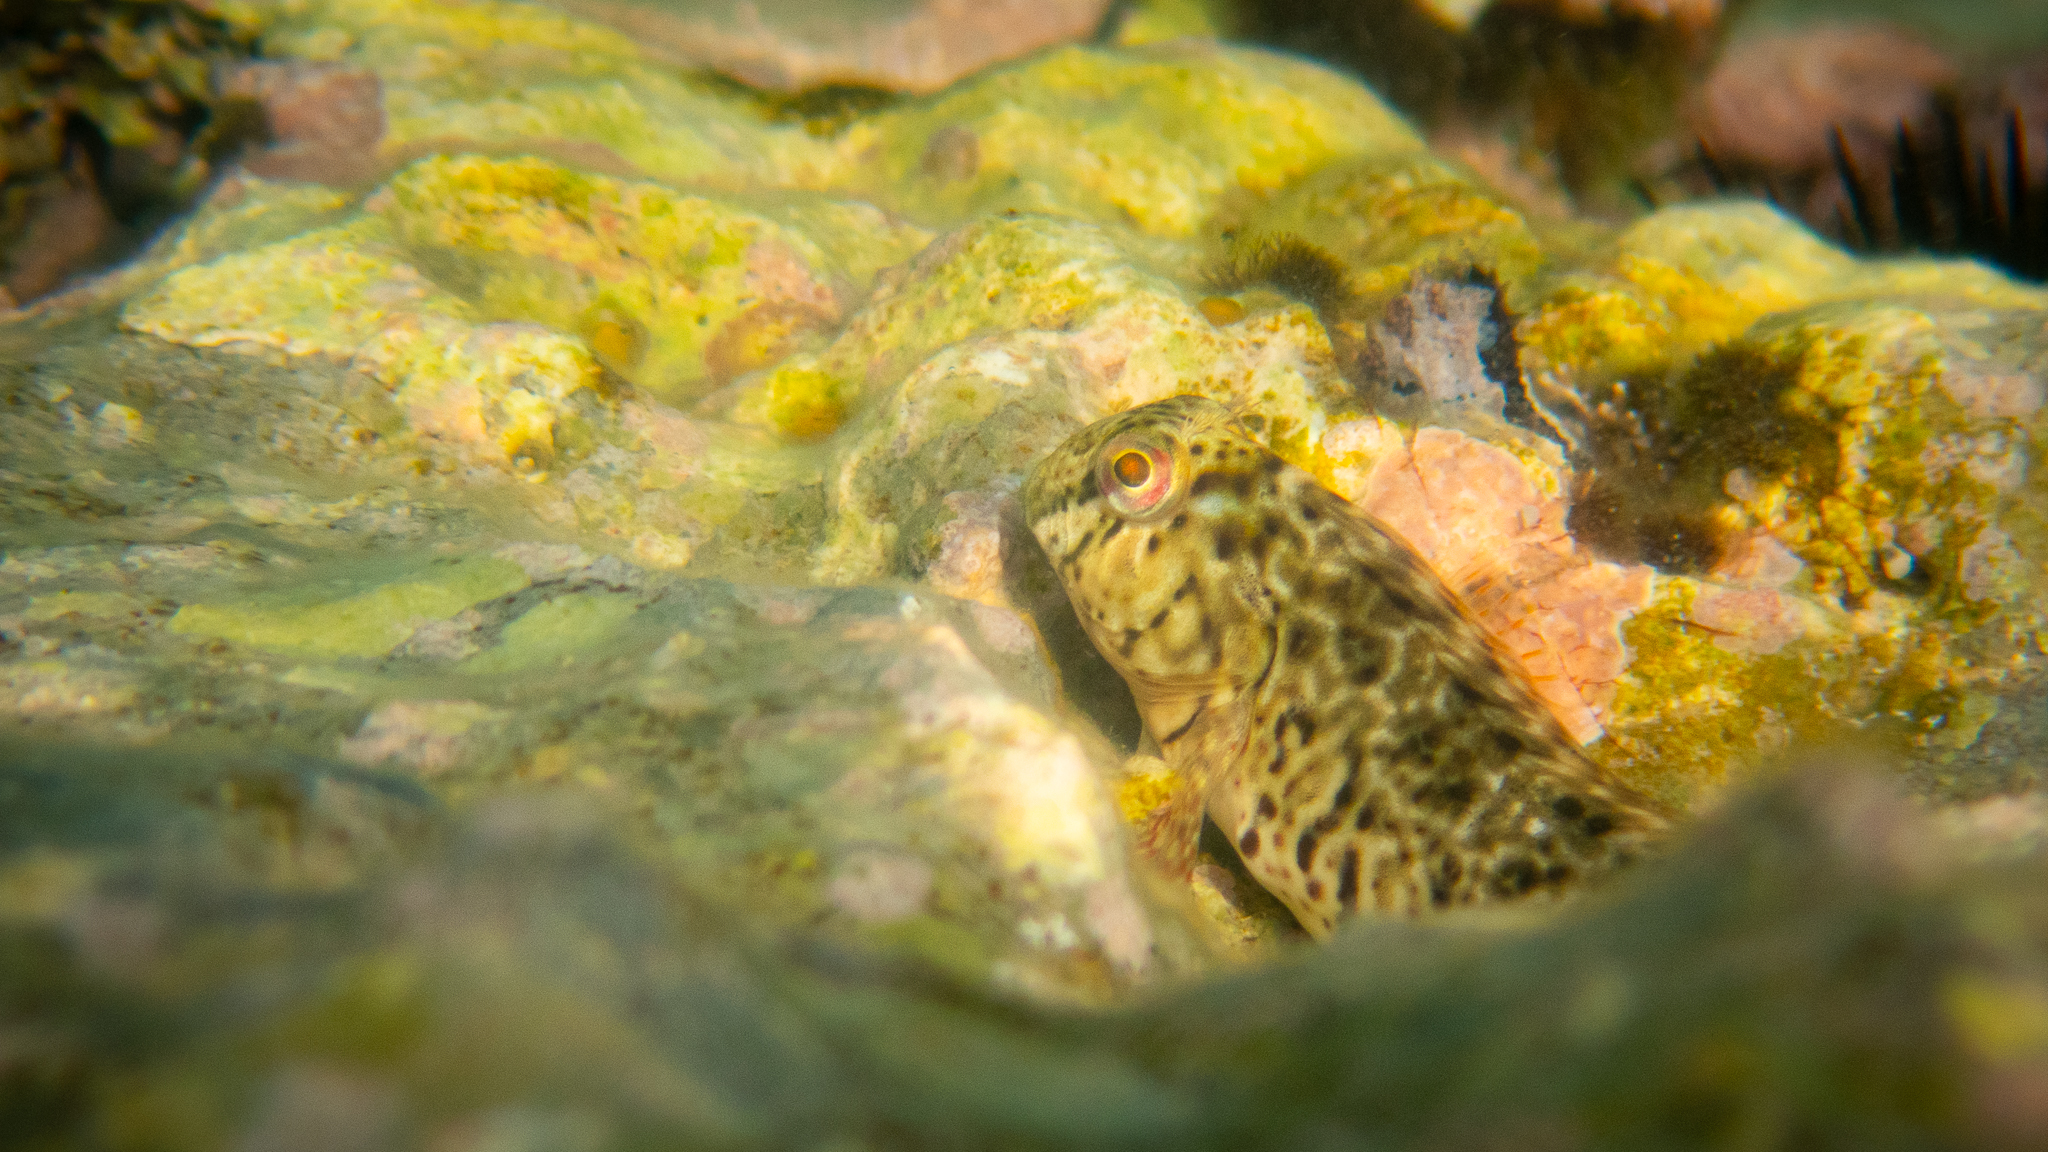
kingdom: Animalia
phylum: Chordata
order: Perciformes
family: Blenniidae
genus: Parablennius
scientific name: Parablennius sanguinolentus
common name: Black sea blenny
